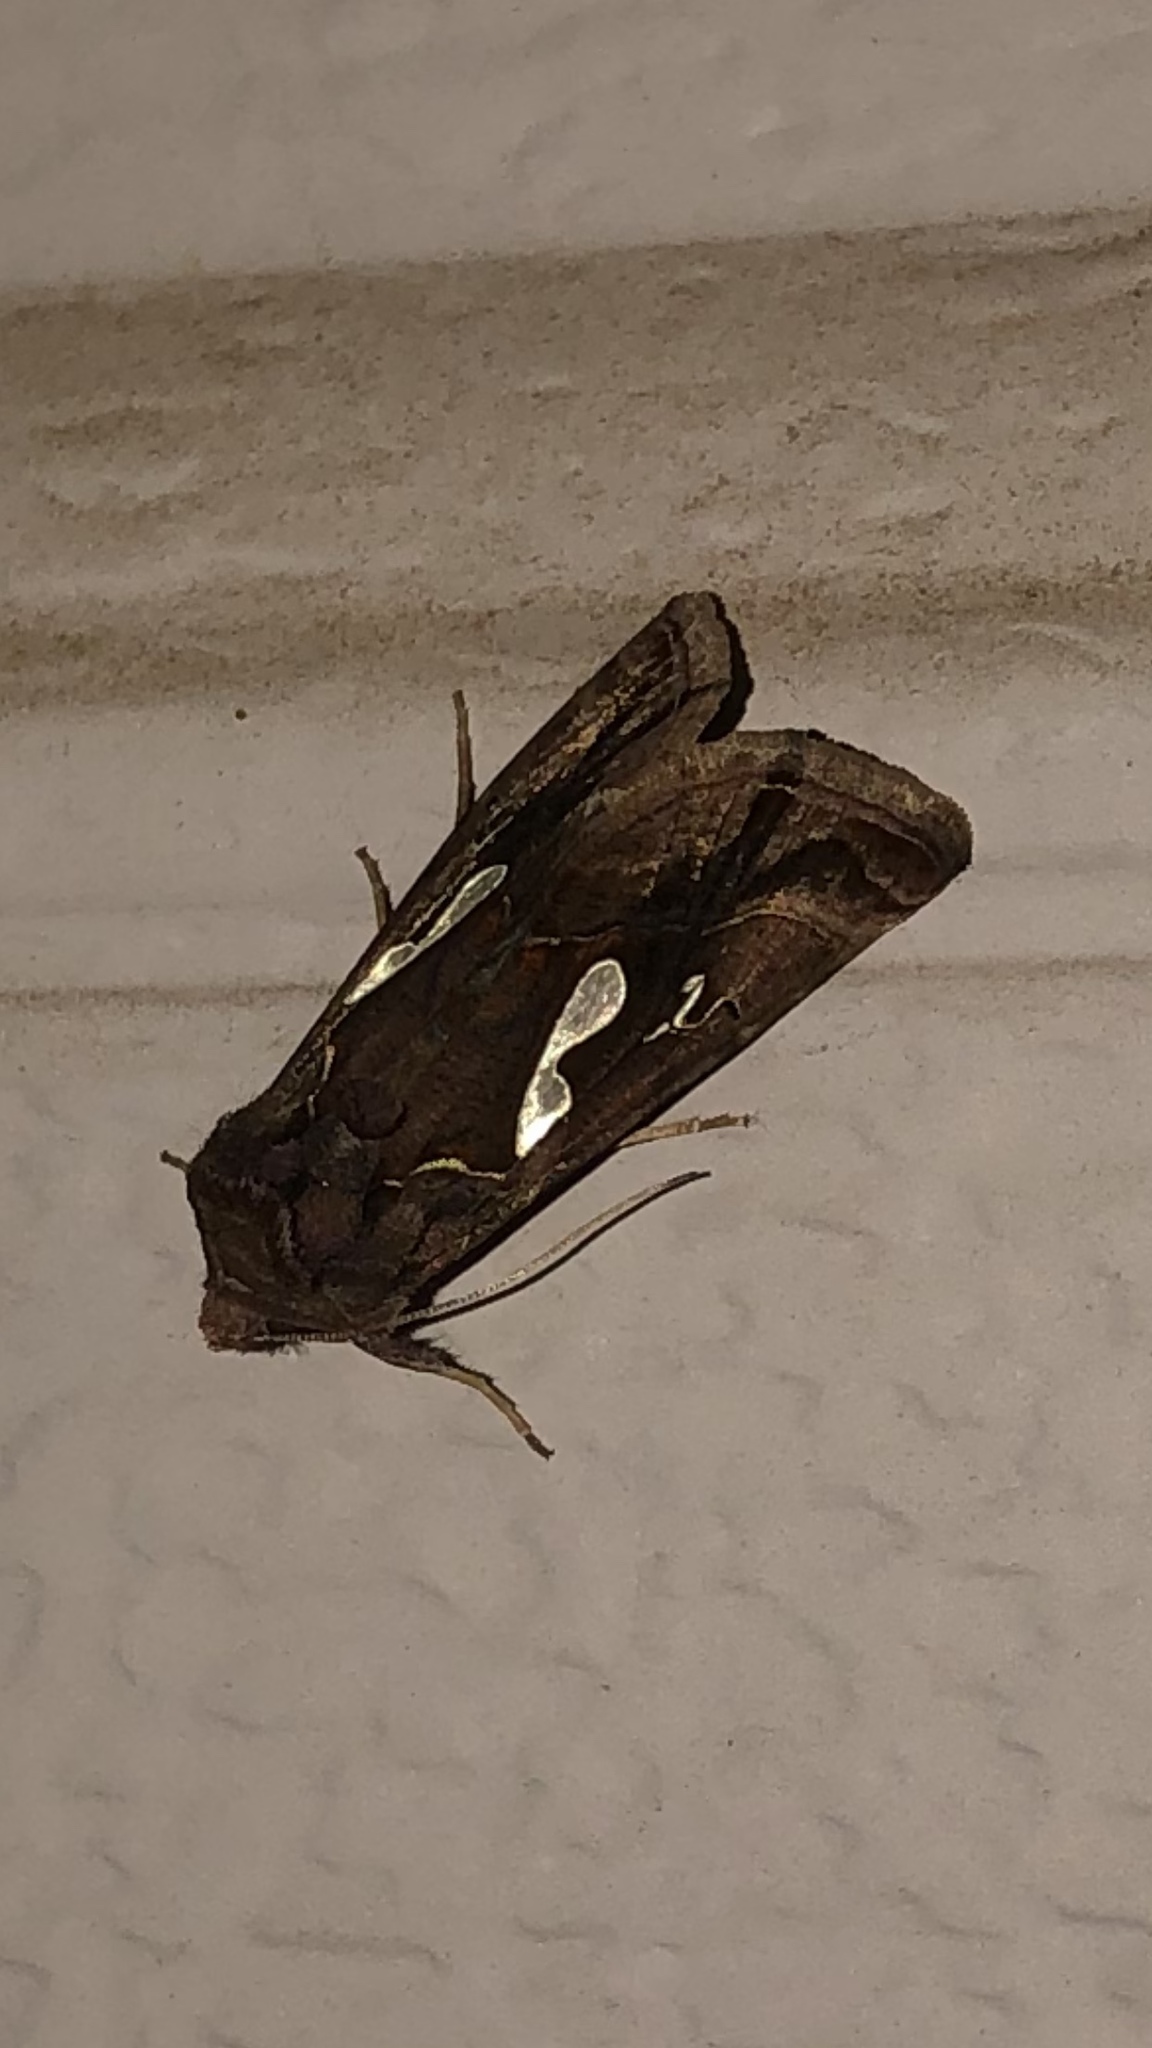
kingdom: Animalia
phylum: Arthropoda
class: Insecta
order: Lepidoptera
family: Noctuidae
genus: Megalographa
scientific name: Megalographa biloba
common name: Cutworm
